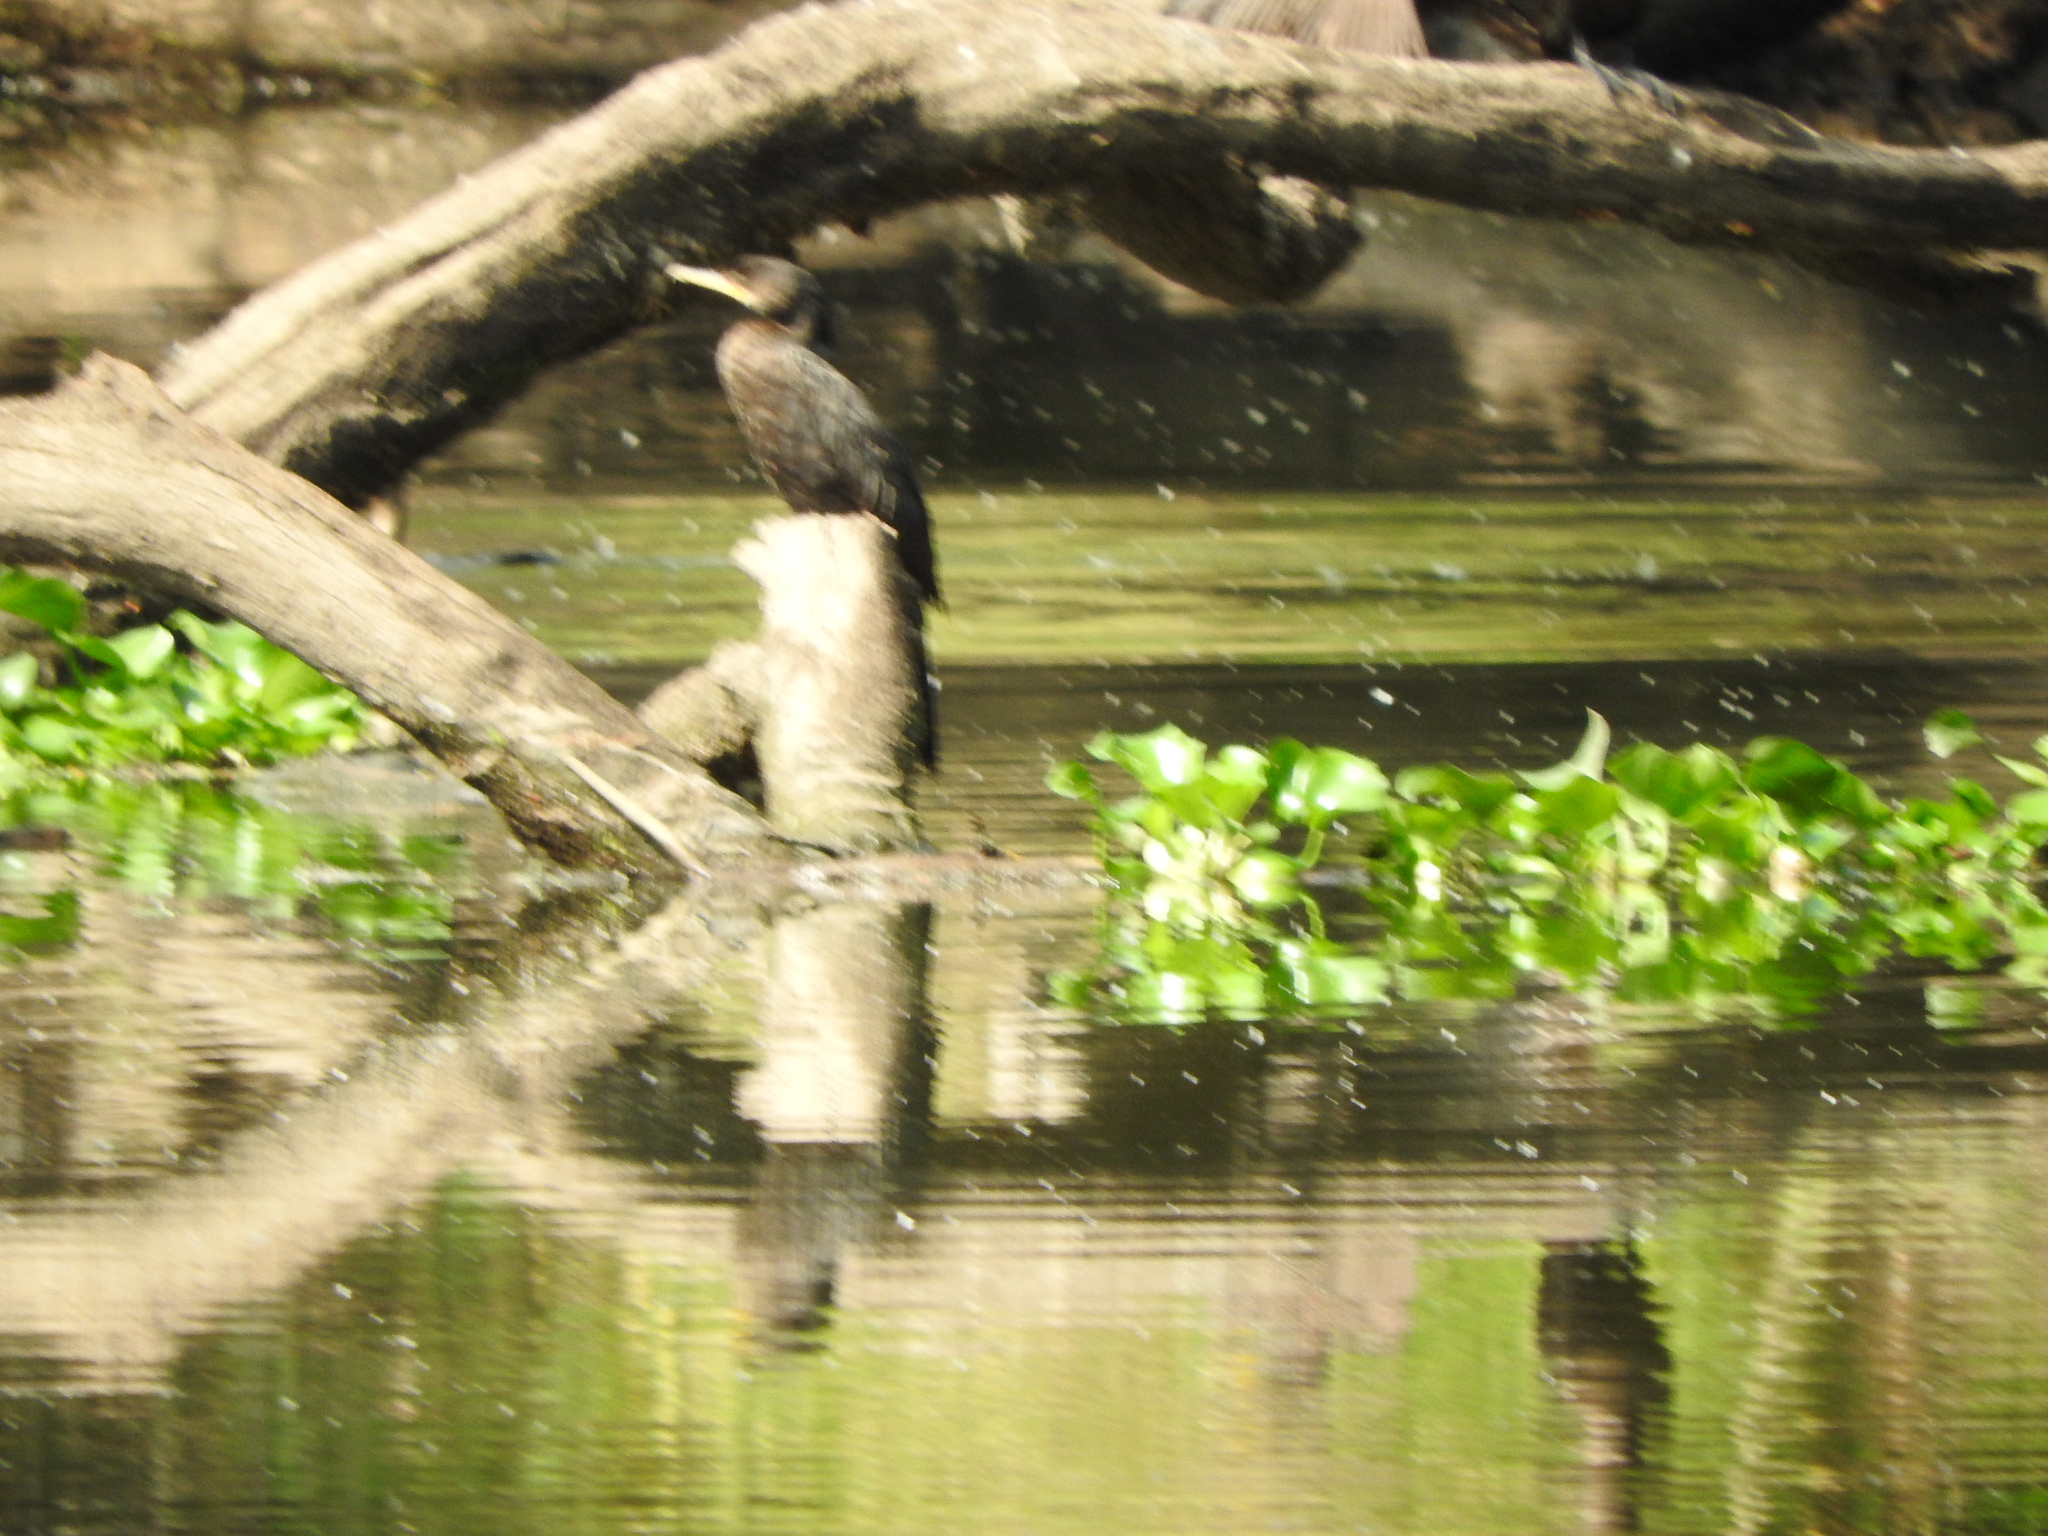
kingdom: Animalia
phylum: Chordata
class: Aves
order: Suliformes
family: Phalacrocoracidae
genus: Phalacrocorax
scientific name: Phalacrocorax brasilianus
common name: Neotropic cormorant
